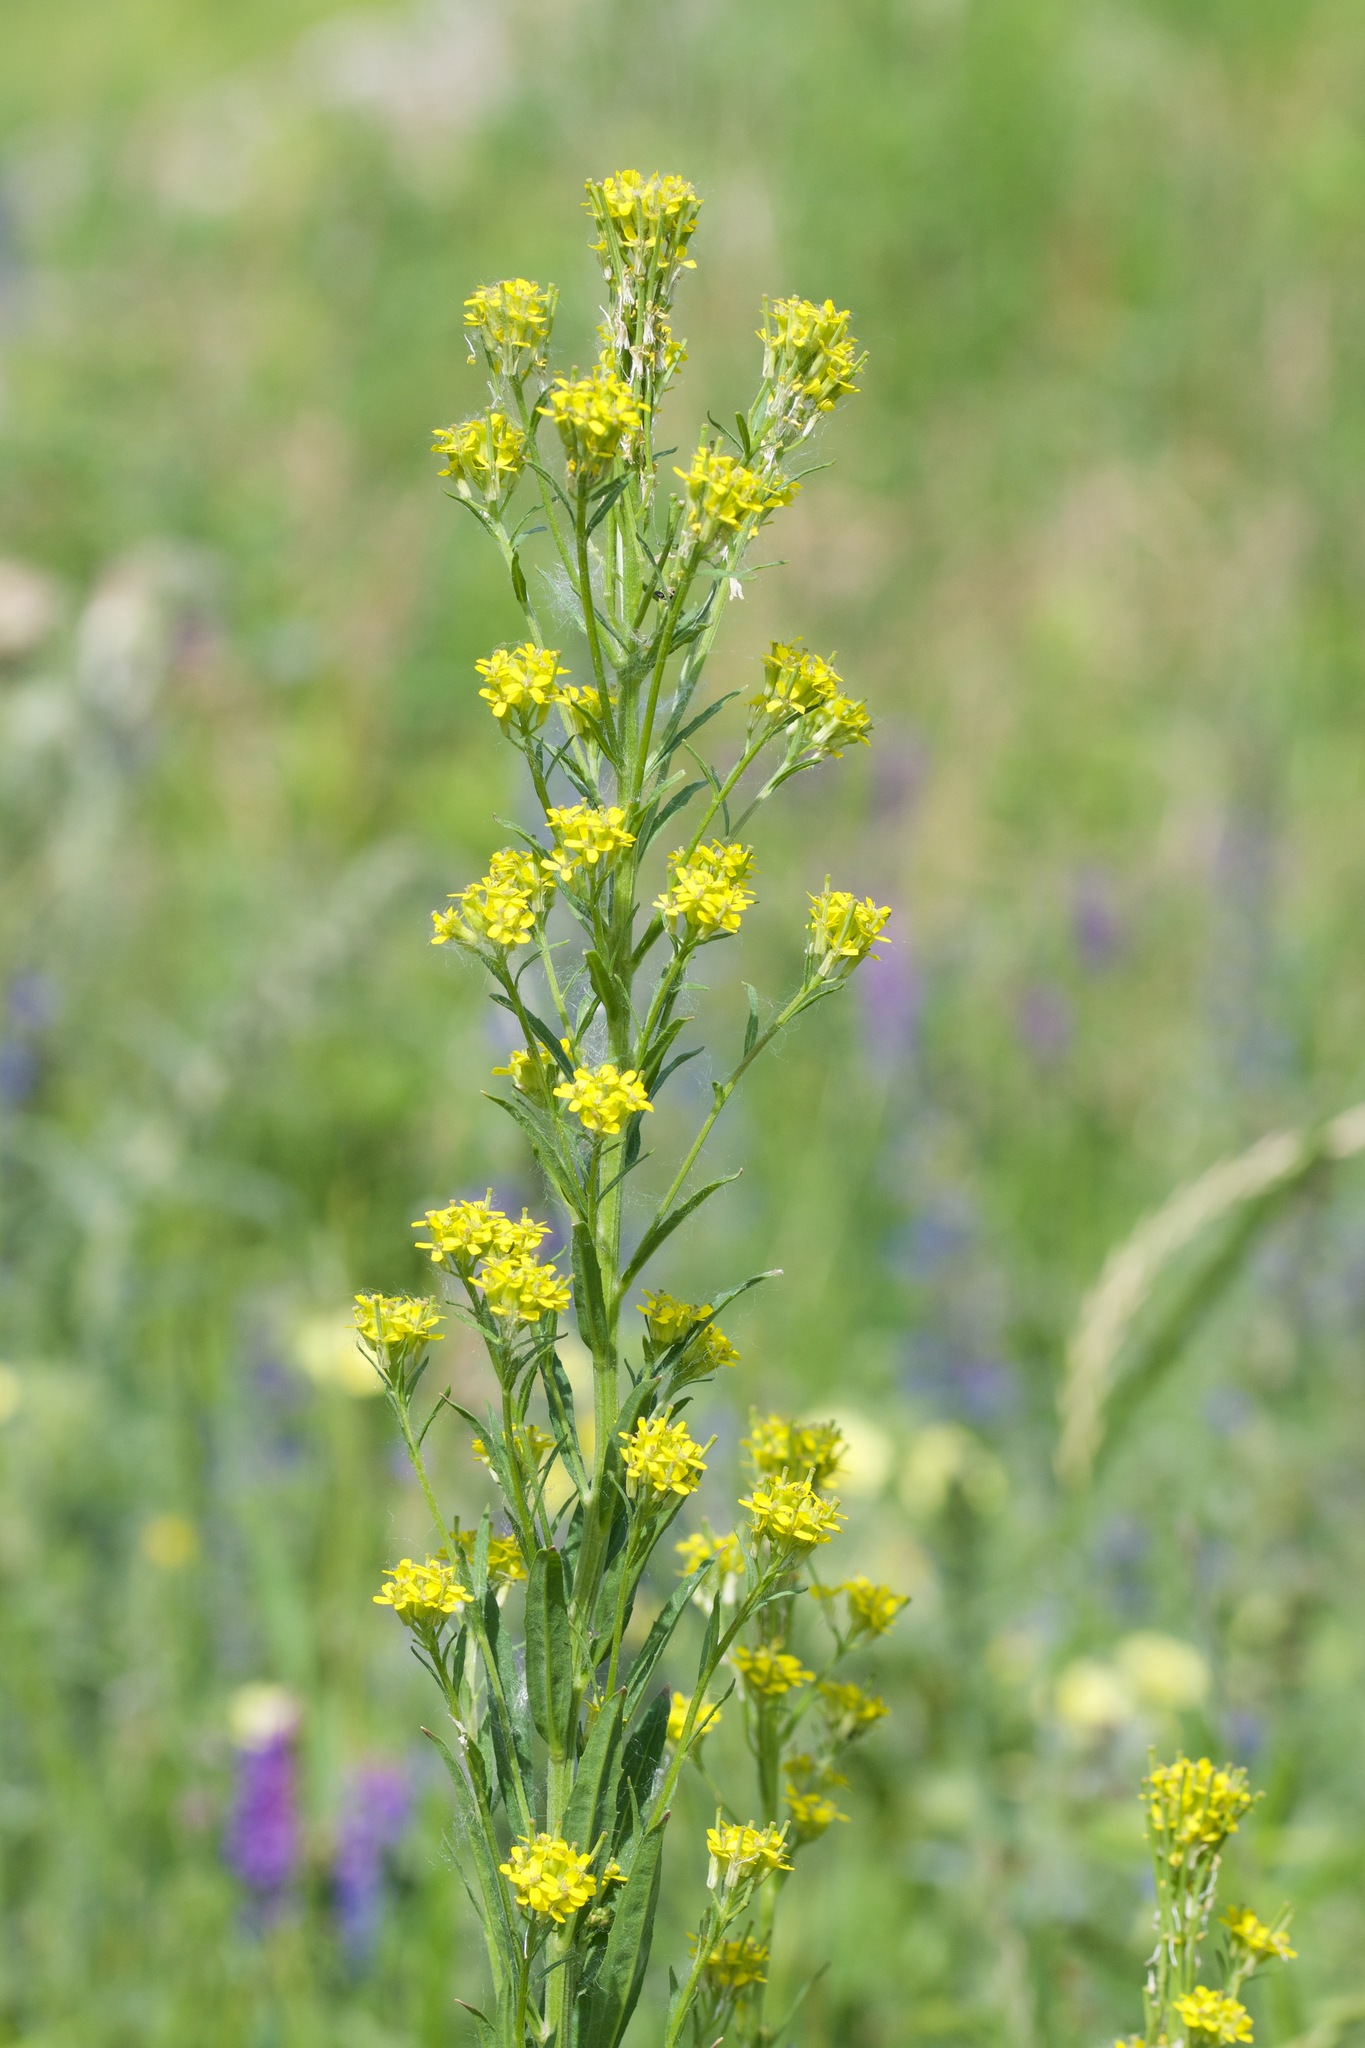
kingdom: Plantae
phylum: Tracheophyta
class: Magnoliopsida
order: Brassicales
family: Brassicaceae
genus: Erysimum
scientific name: Erysimum cheiranthoides
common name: Treacle mustard
